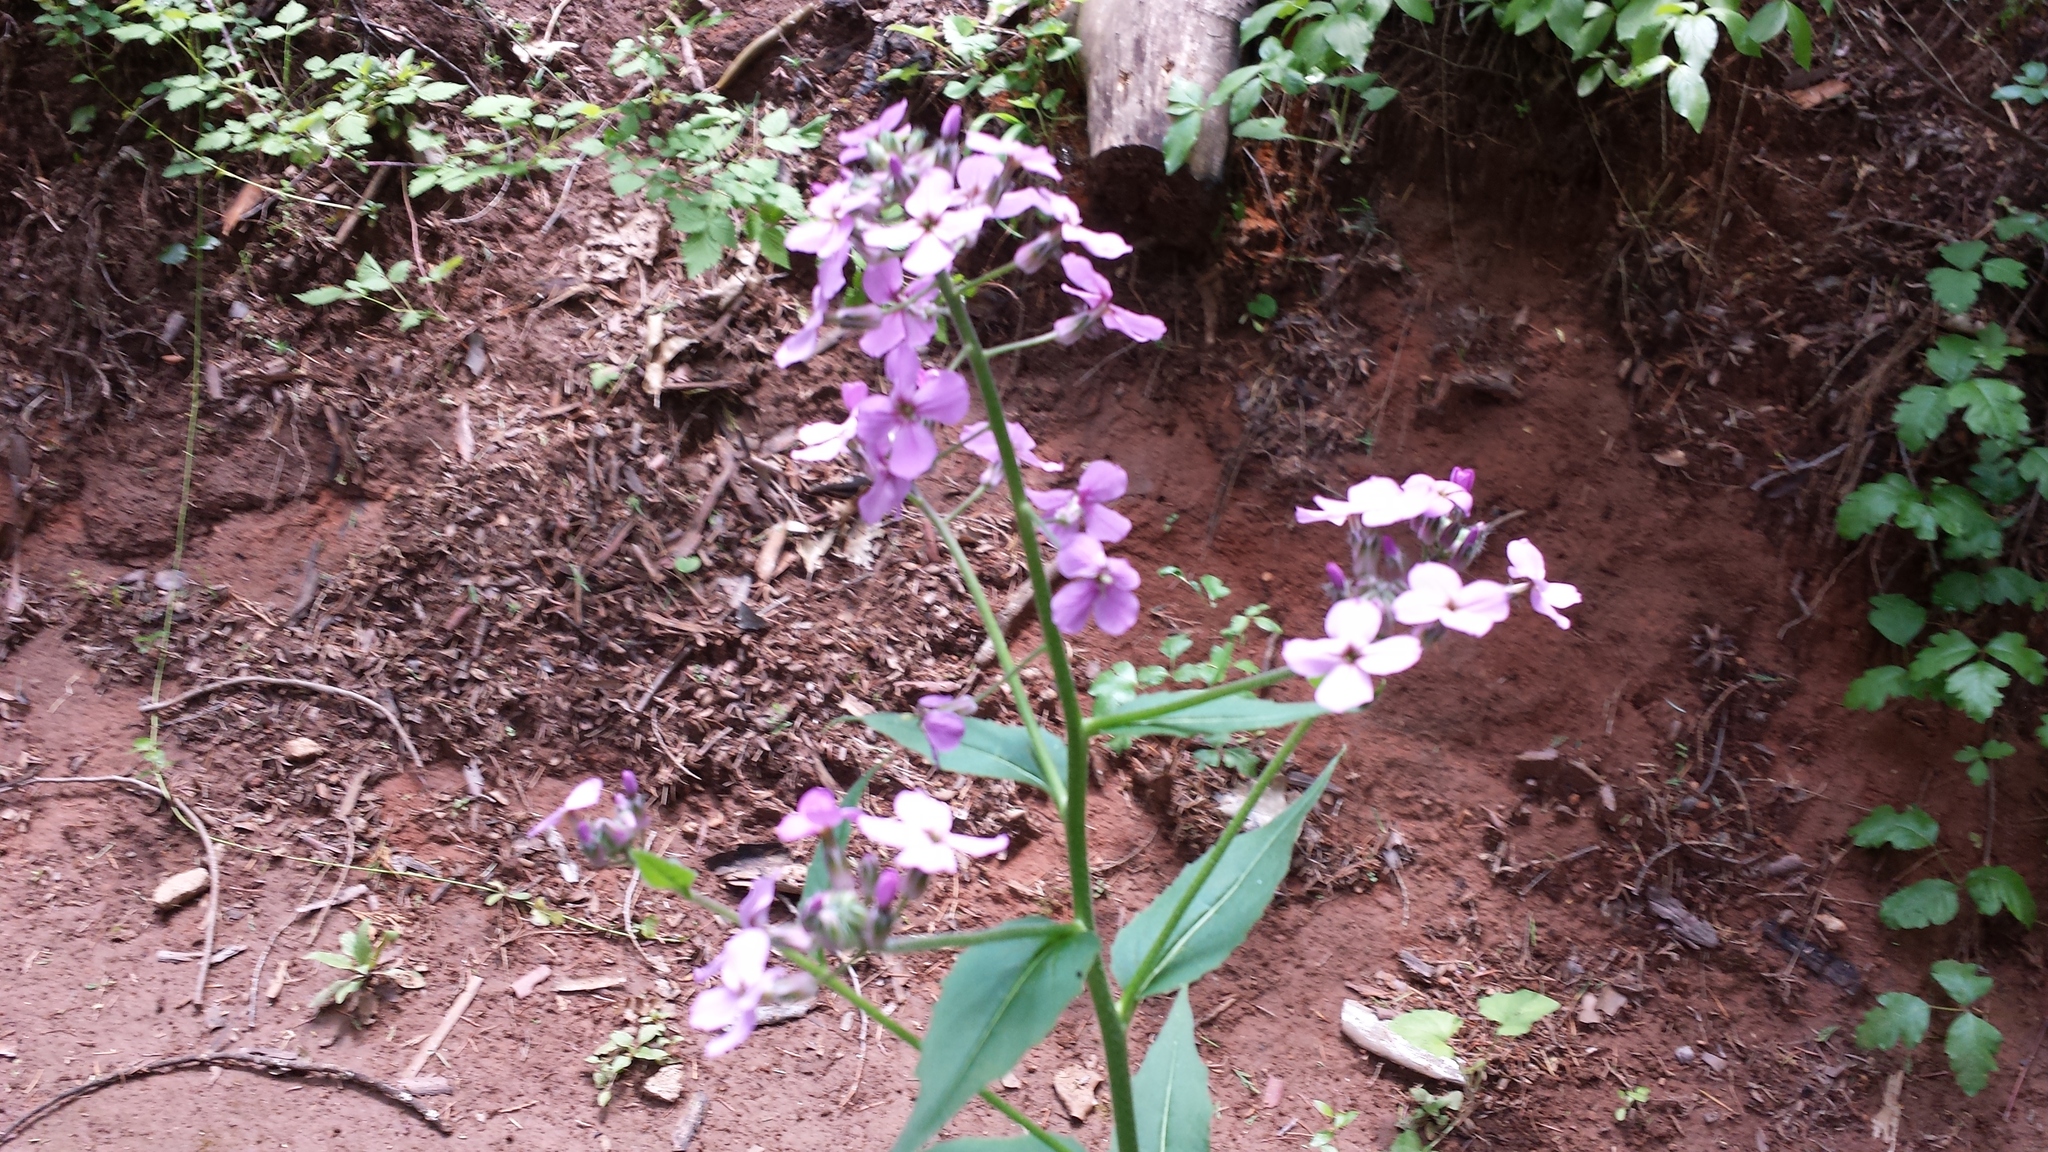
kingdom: Plantae
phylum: Tracheophyta
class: Magnoliopsida
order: Brassicales
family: Brassicaceae
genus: Hesperis
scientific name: Hesperis matronalis
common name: Dame's-violet
